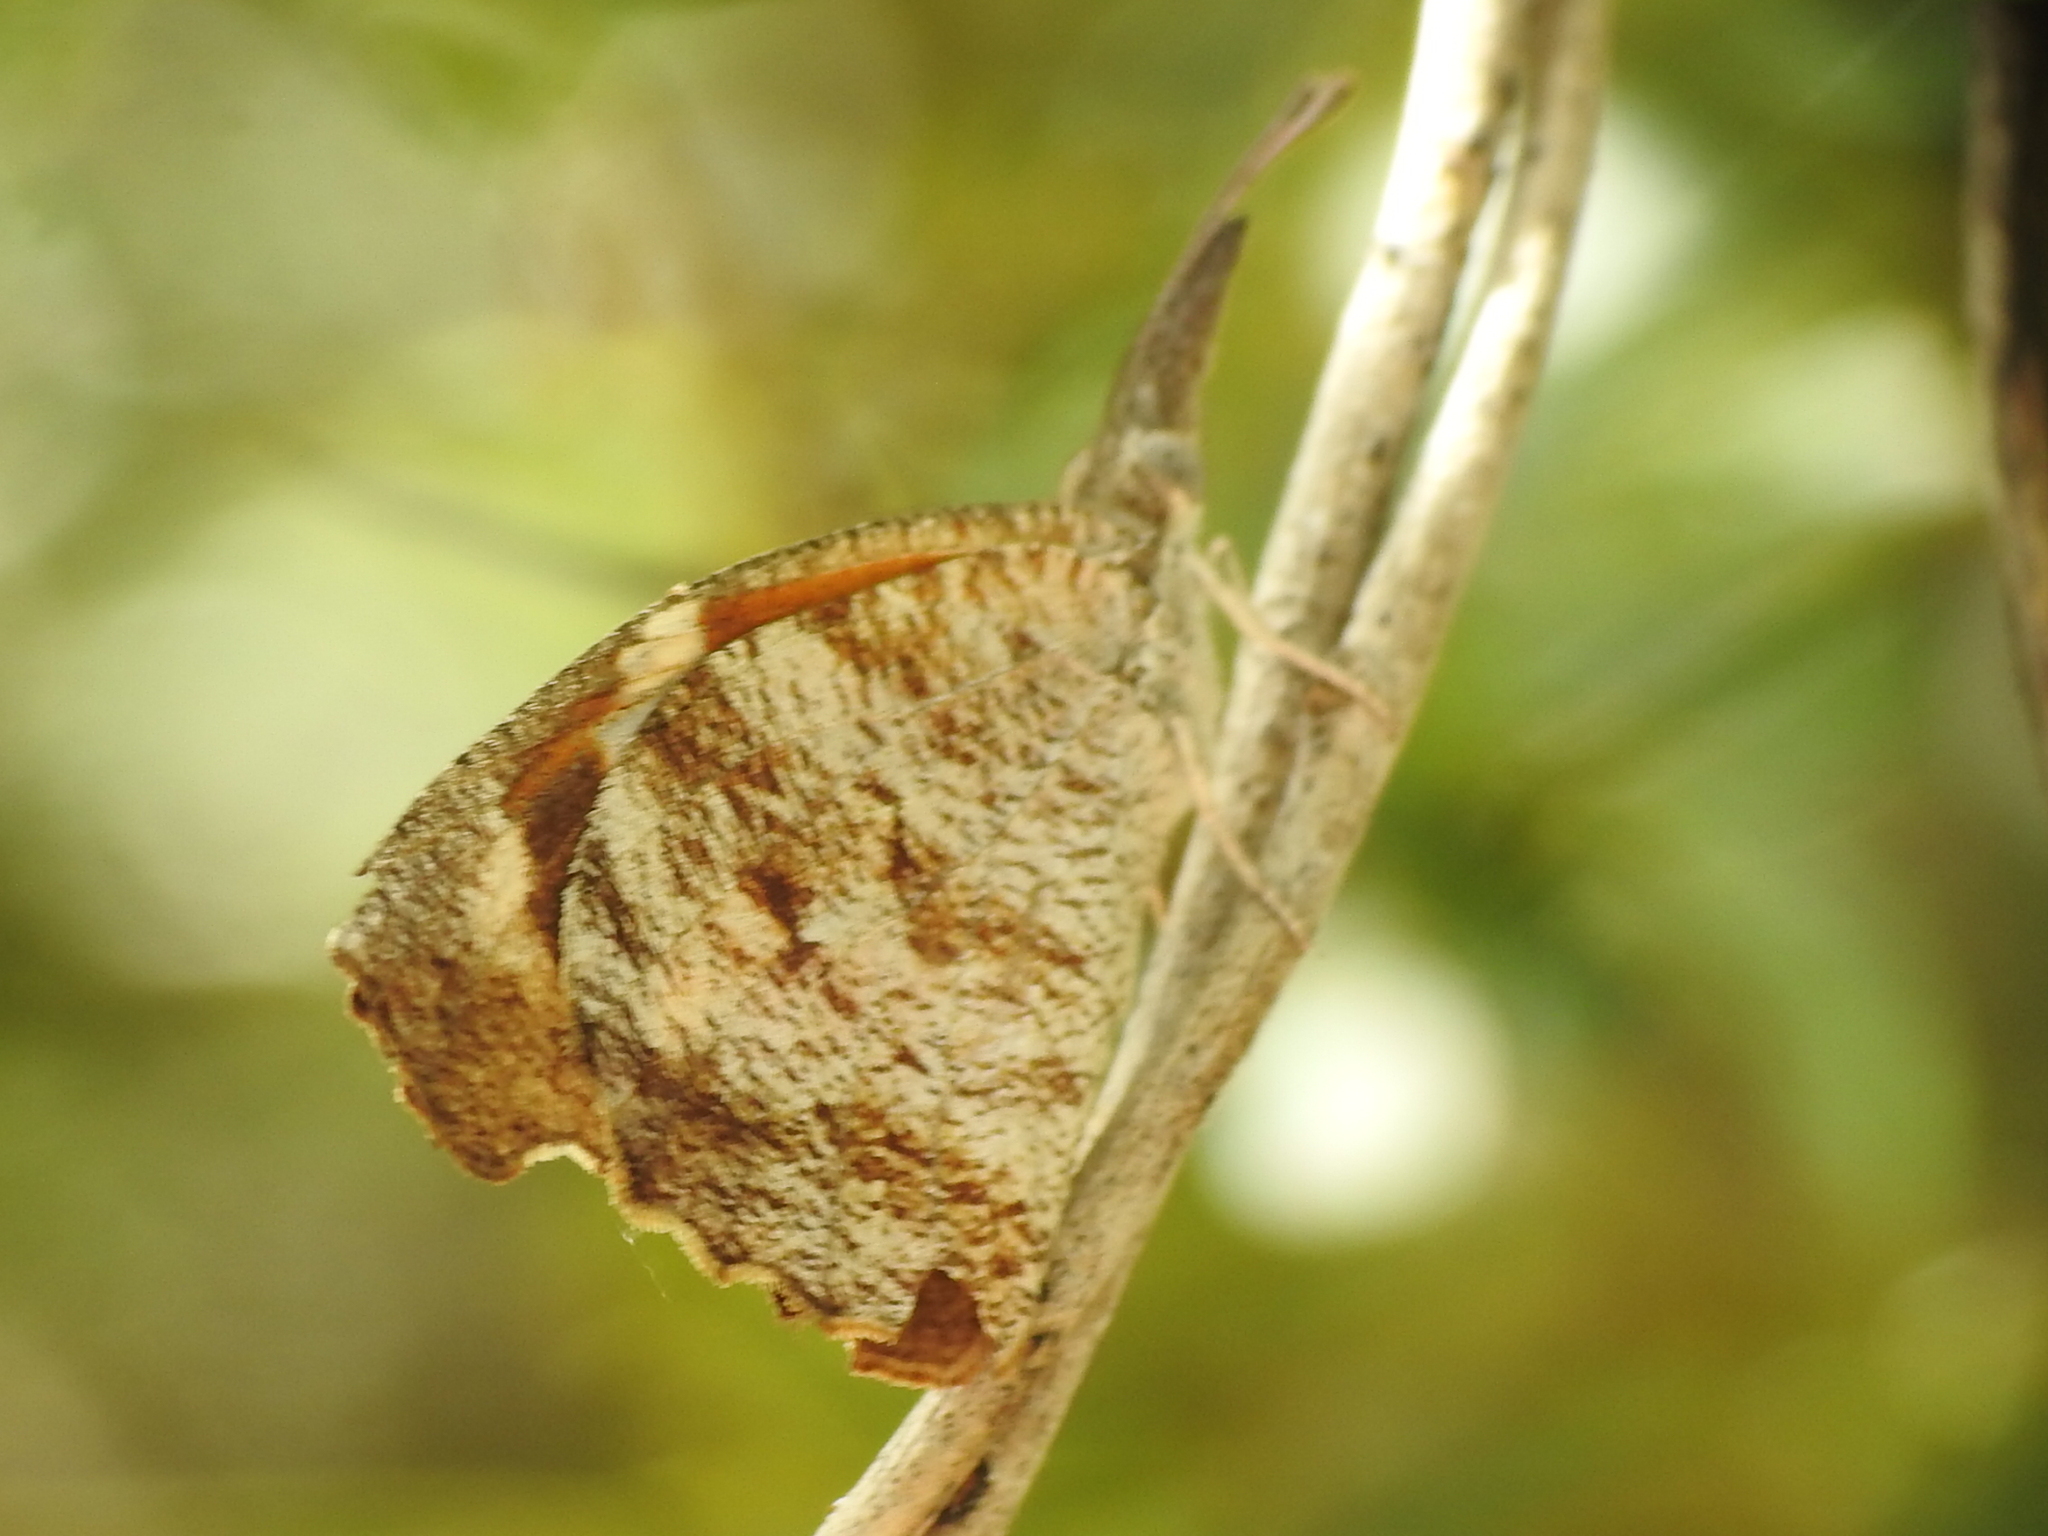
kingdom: Animalia
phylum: Arthropoda
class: Insecta
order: Lepidoptera
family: Nymphalidae
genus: Libytheana
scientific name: Libytheana carinenta
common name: American snout
